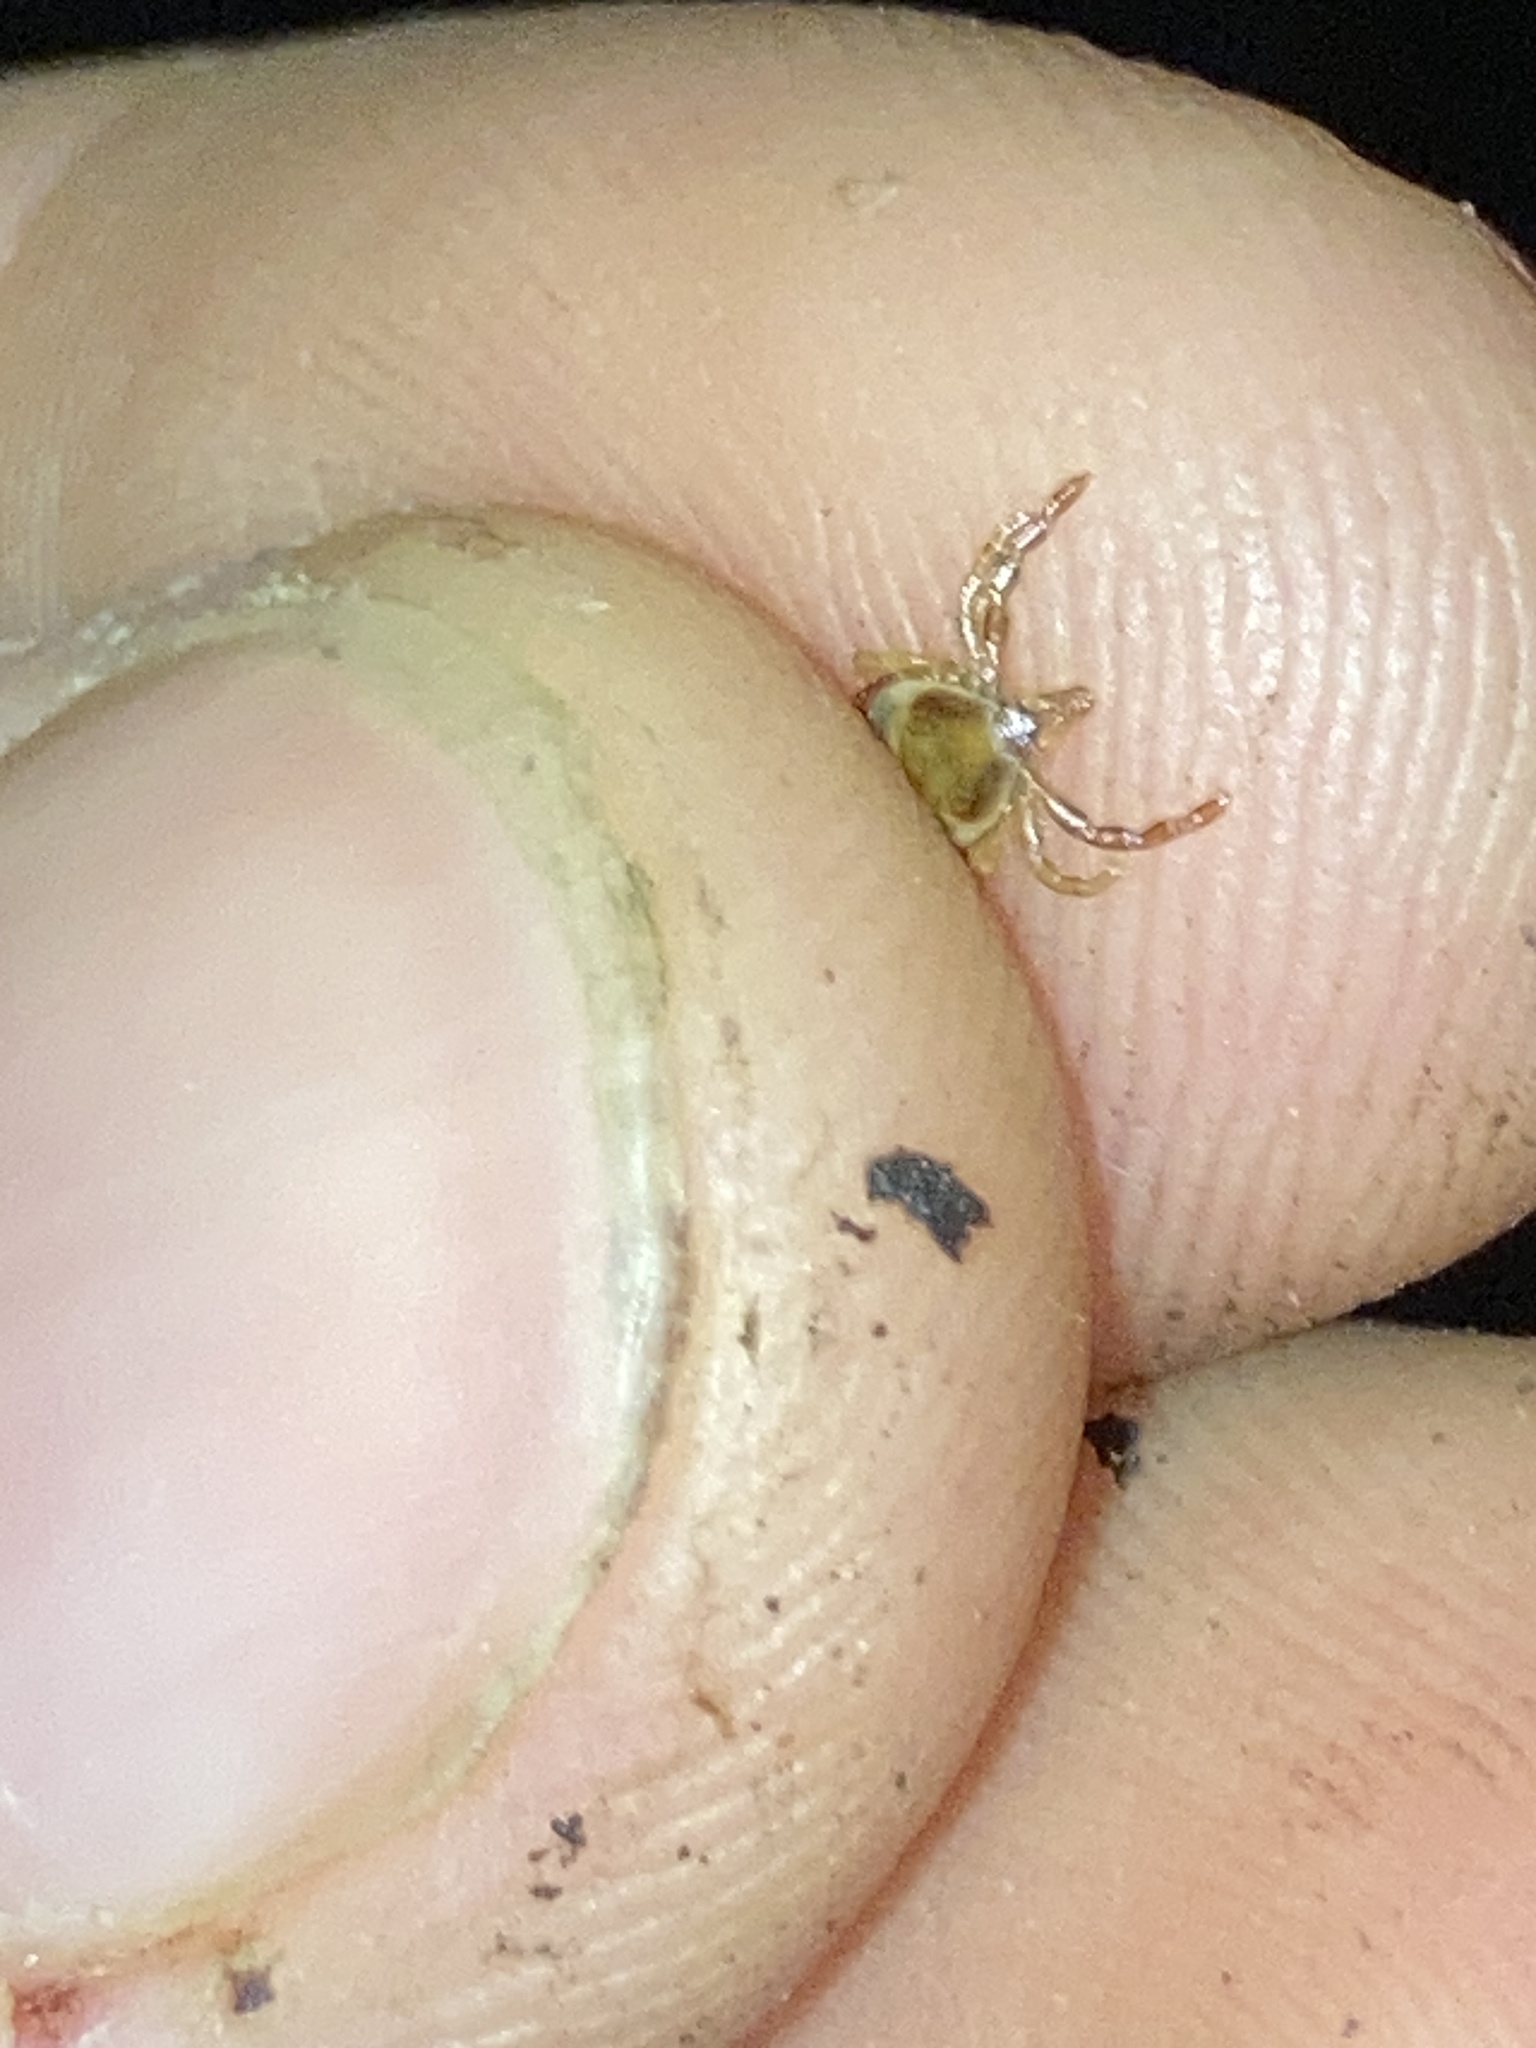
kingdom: Animalia
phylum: Arthropoda
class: Arachnida
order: Ixodida
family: Ixodidae
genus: Ixodes
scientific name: Ixodes holocyclus
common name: Australian paralysis tick
